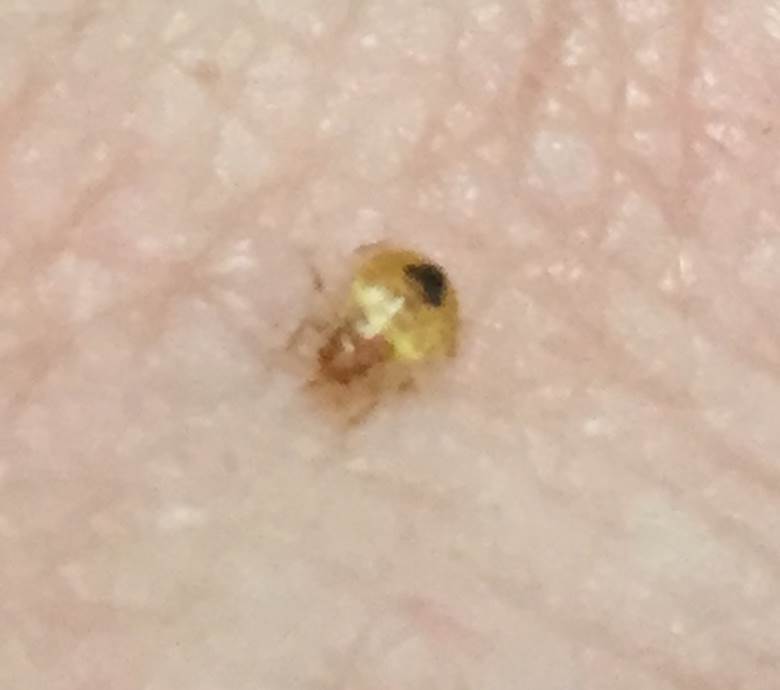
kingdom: Animalia
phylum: Arthropoda
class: Insecta
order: Hemiptera
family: Cimicidae
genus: Cimex
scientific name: Cimex lectularius
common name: Bed bug
